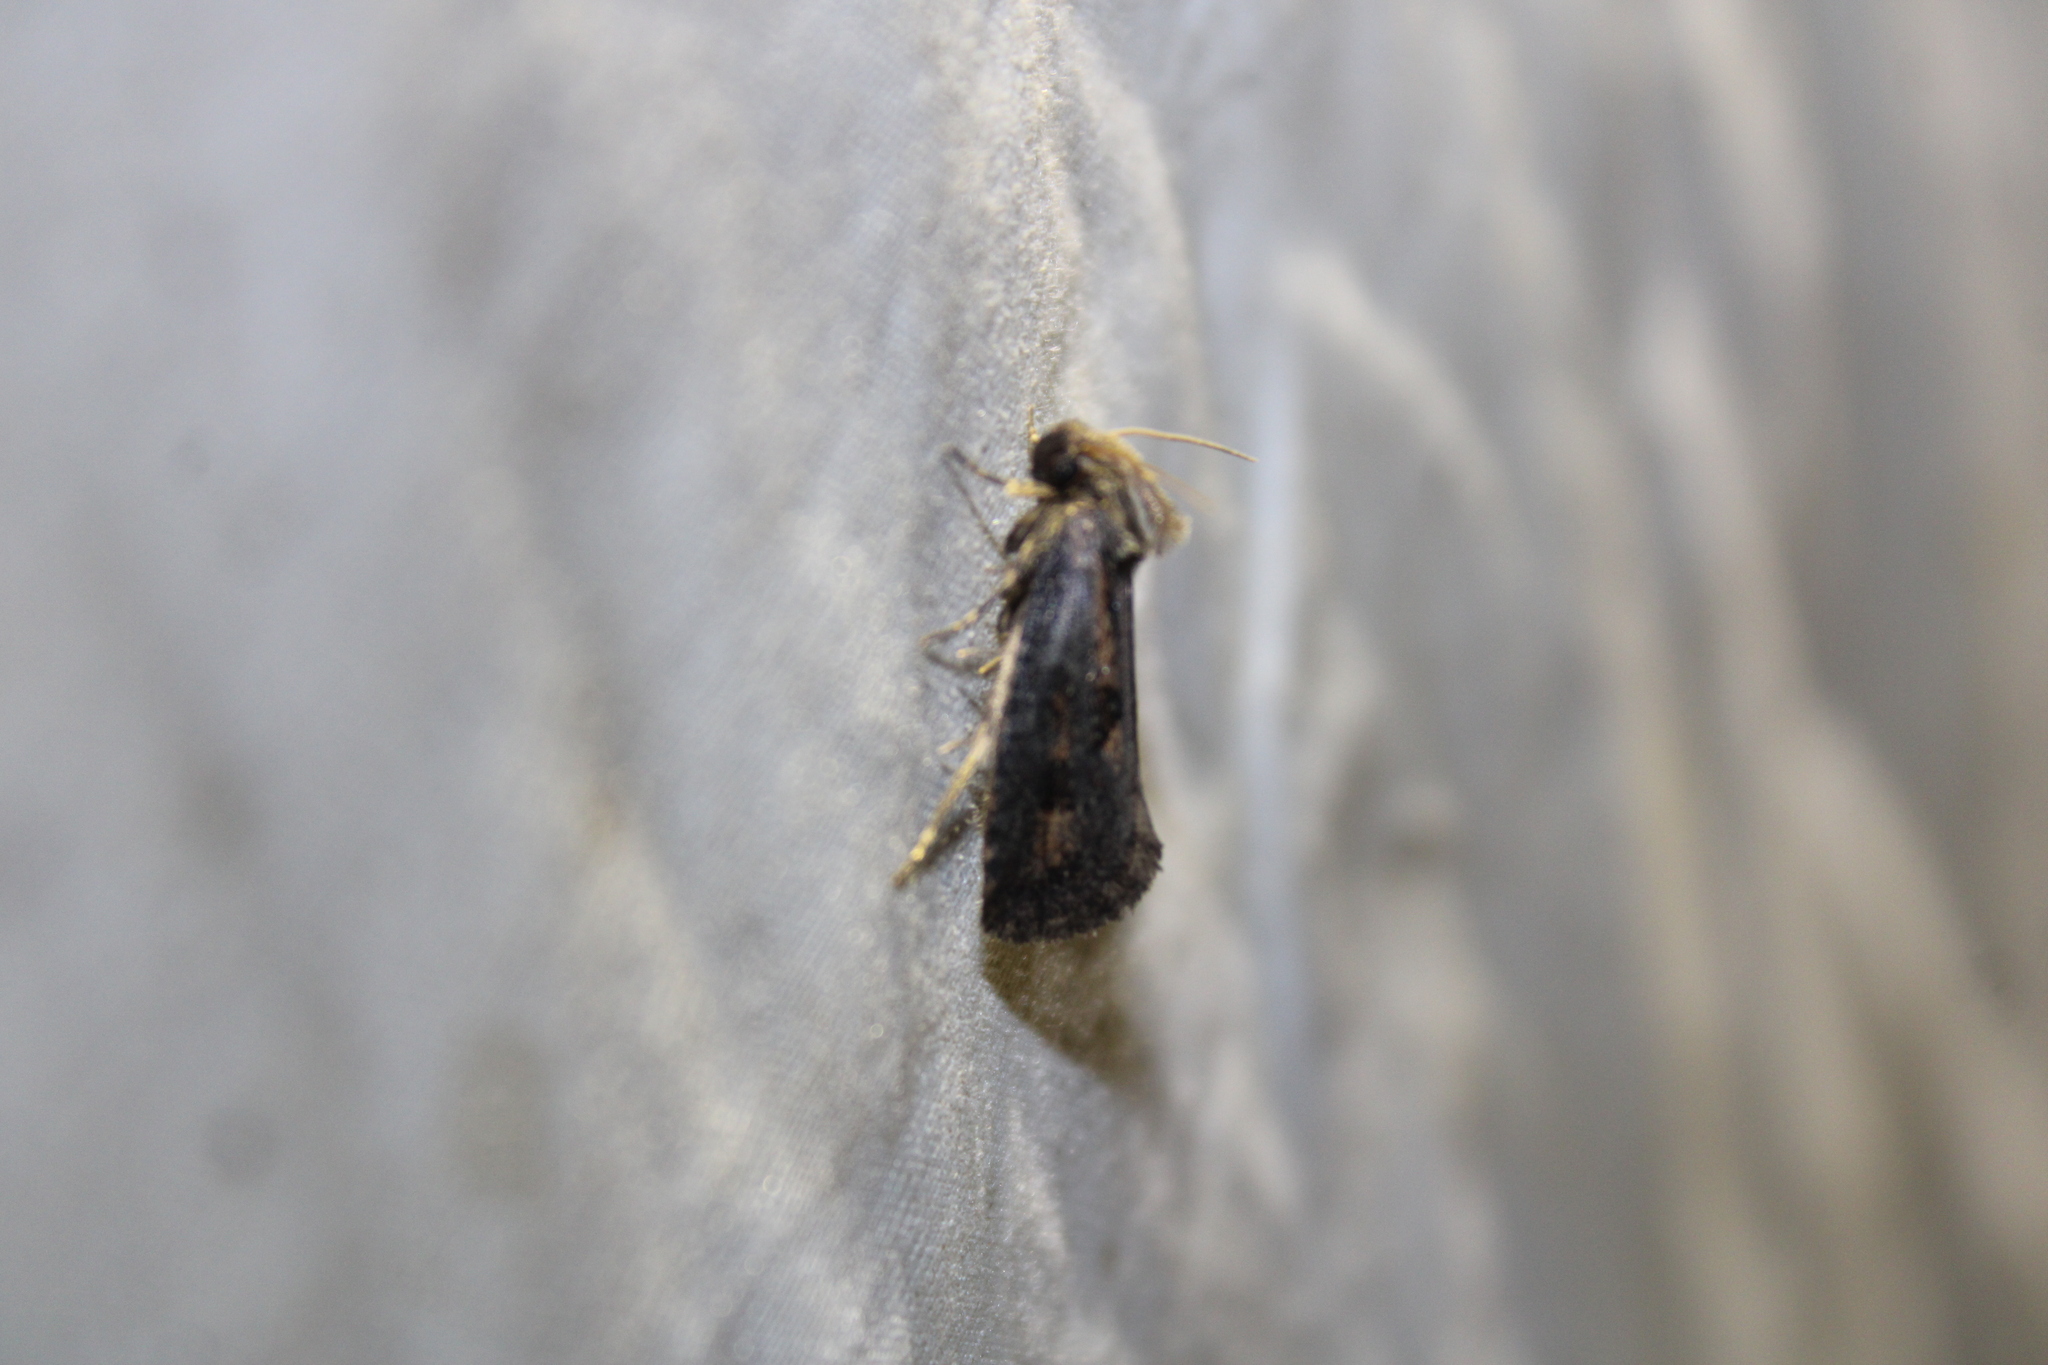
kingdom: Animalia
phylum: Arthropoda
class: Insecta
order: Lepidoptera
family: Tineidae
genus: Acrolophus
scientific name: Acrolophus popeanella
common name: Clemens' grass tubeworm moth
